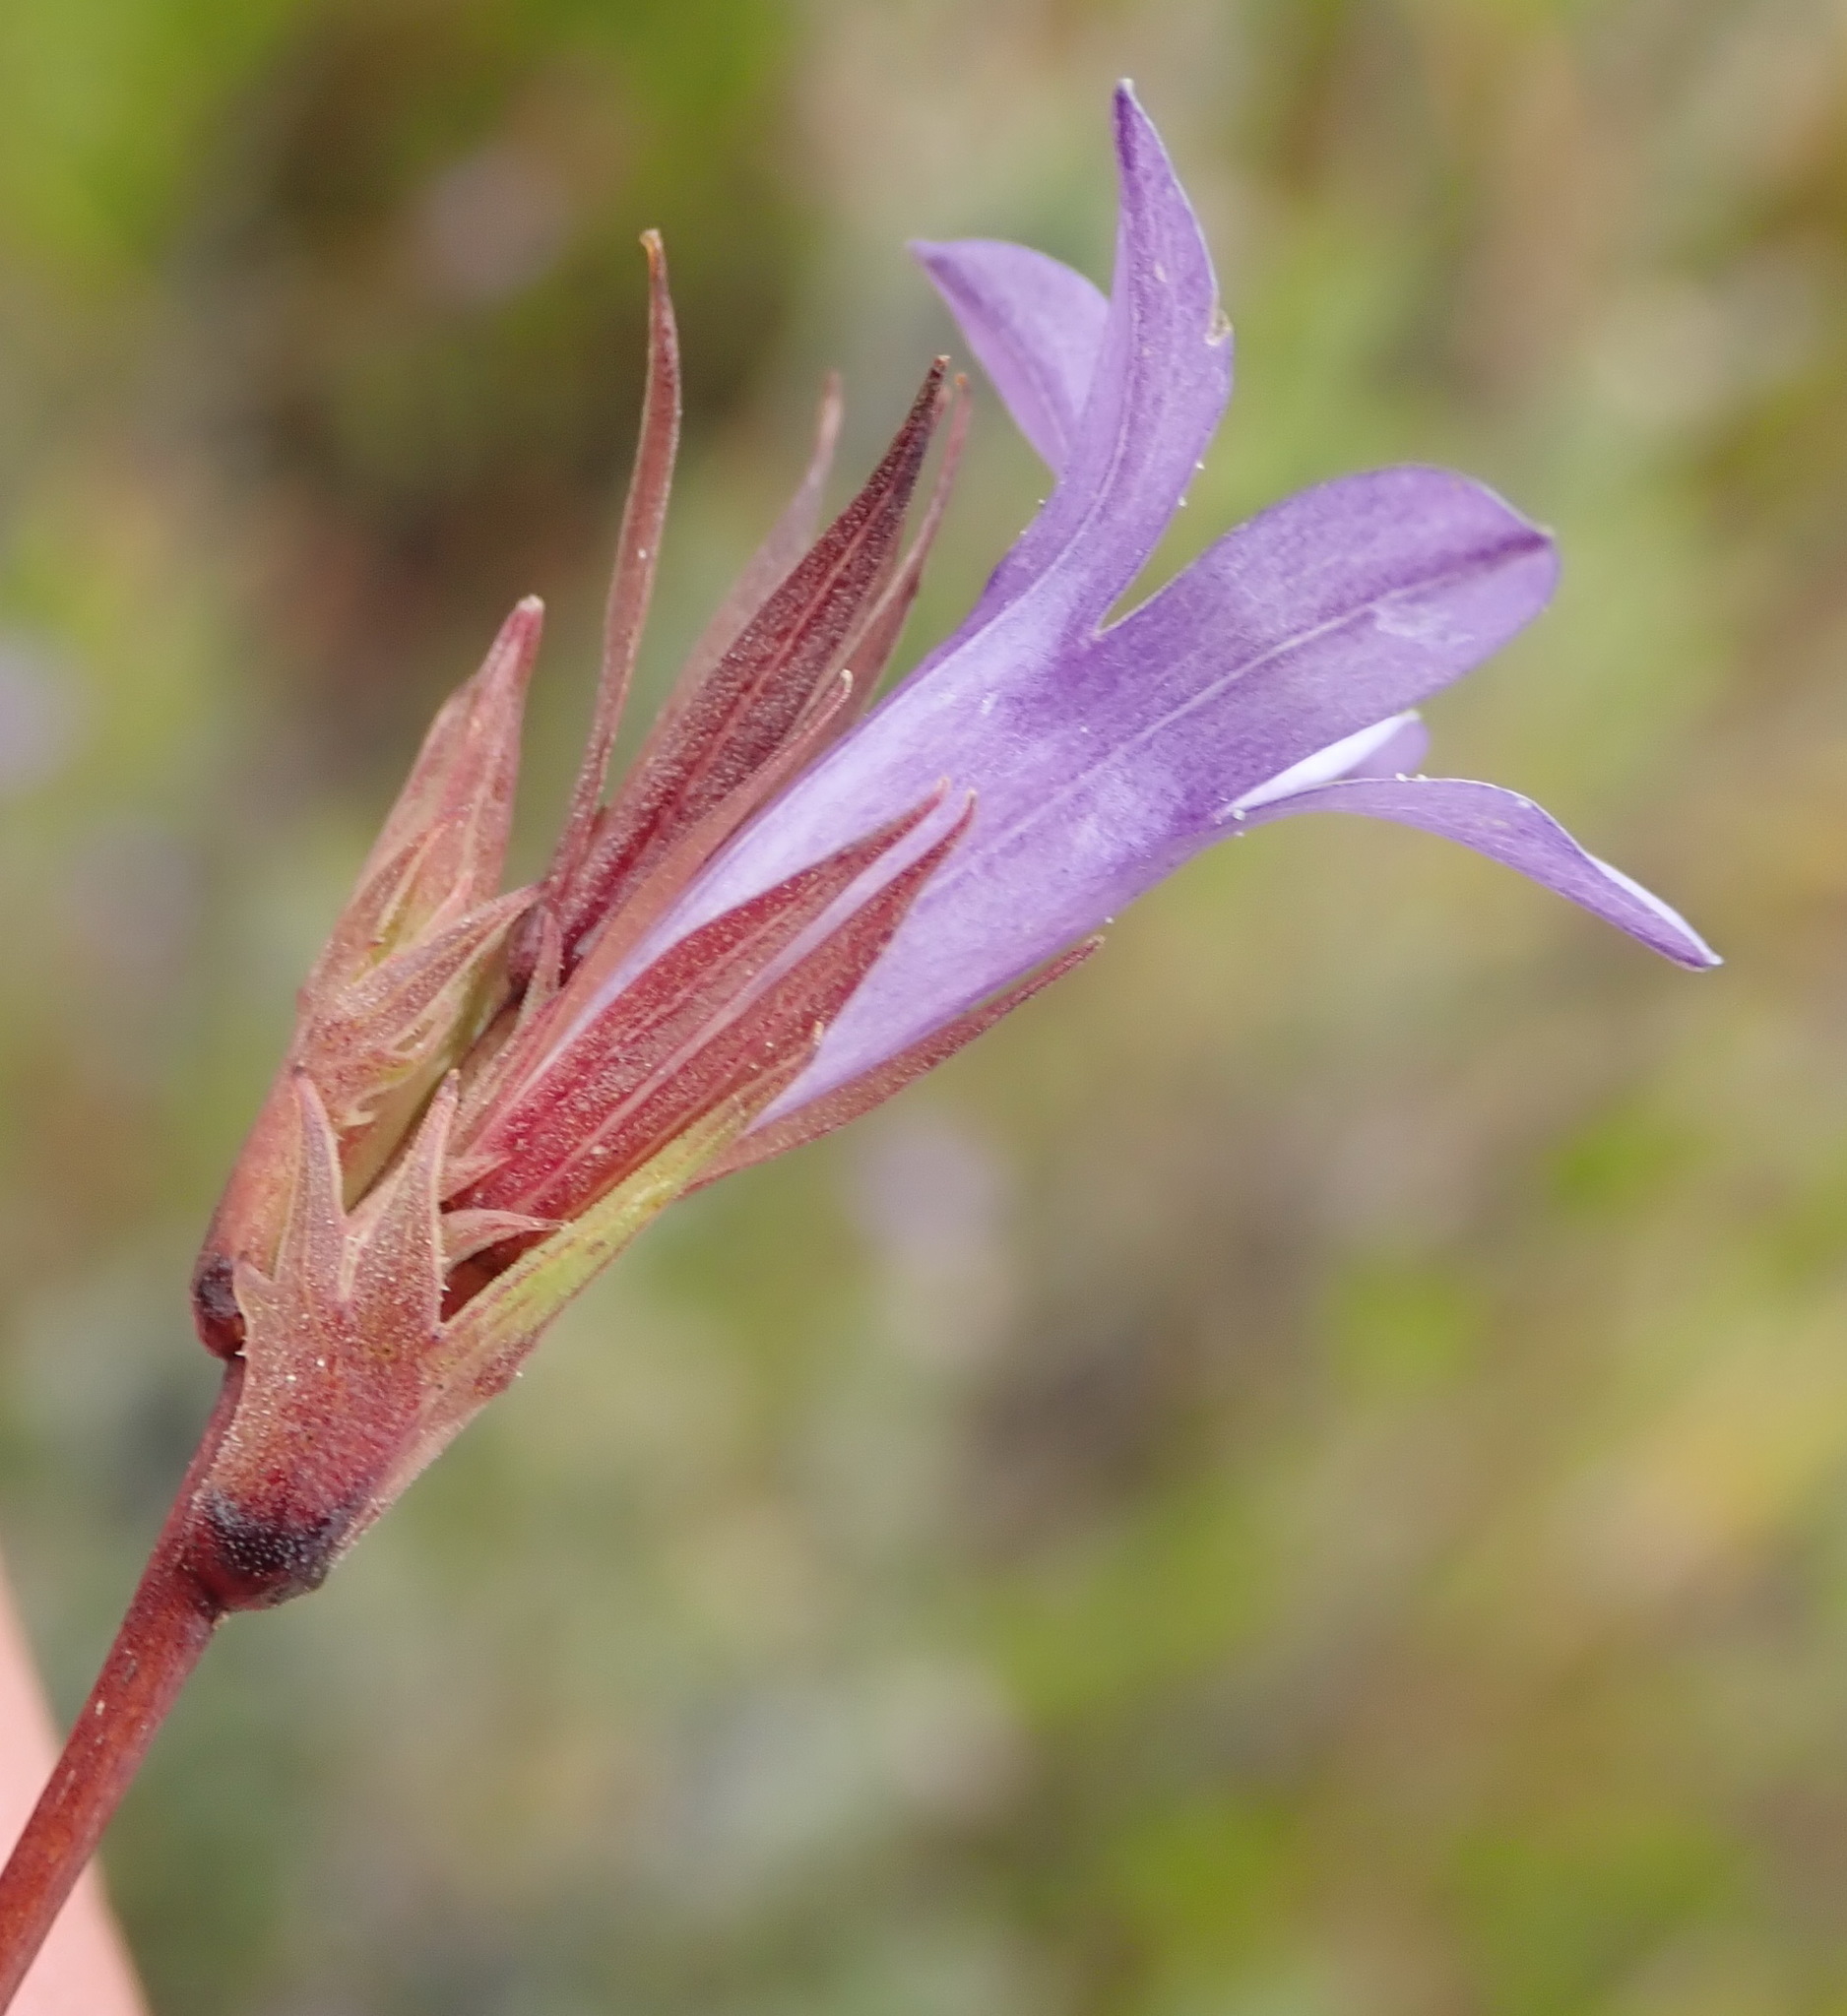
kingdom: Plantae
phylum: Tracheophyta
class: Magnoliopsida
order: Asterales
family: Campanulaceae
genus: Prismatocarpus
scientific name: Prismatocarpus candolleanus
